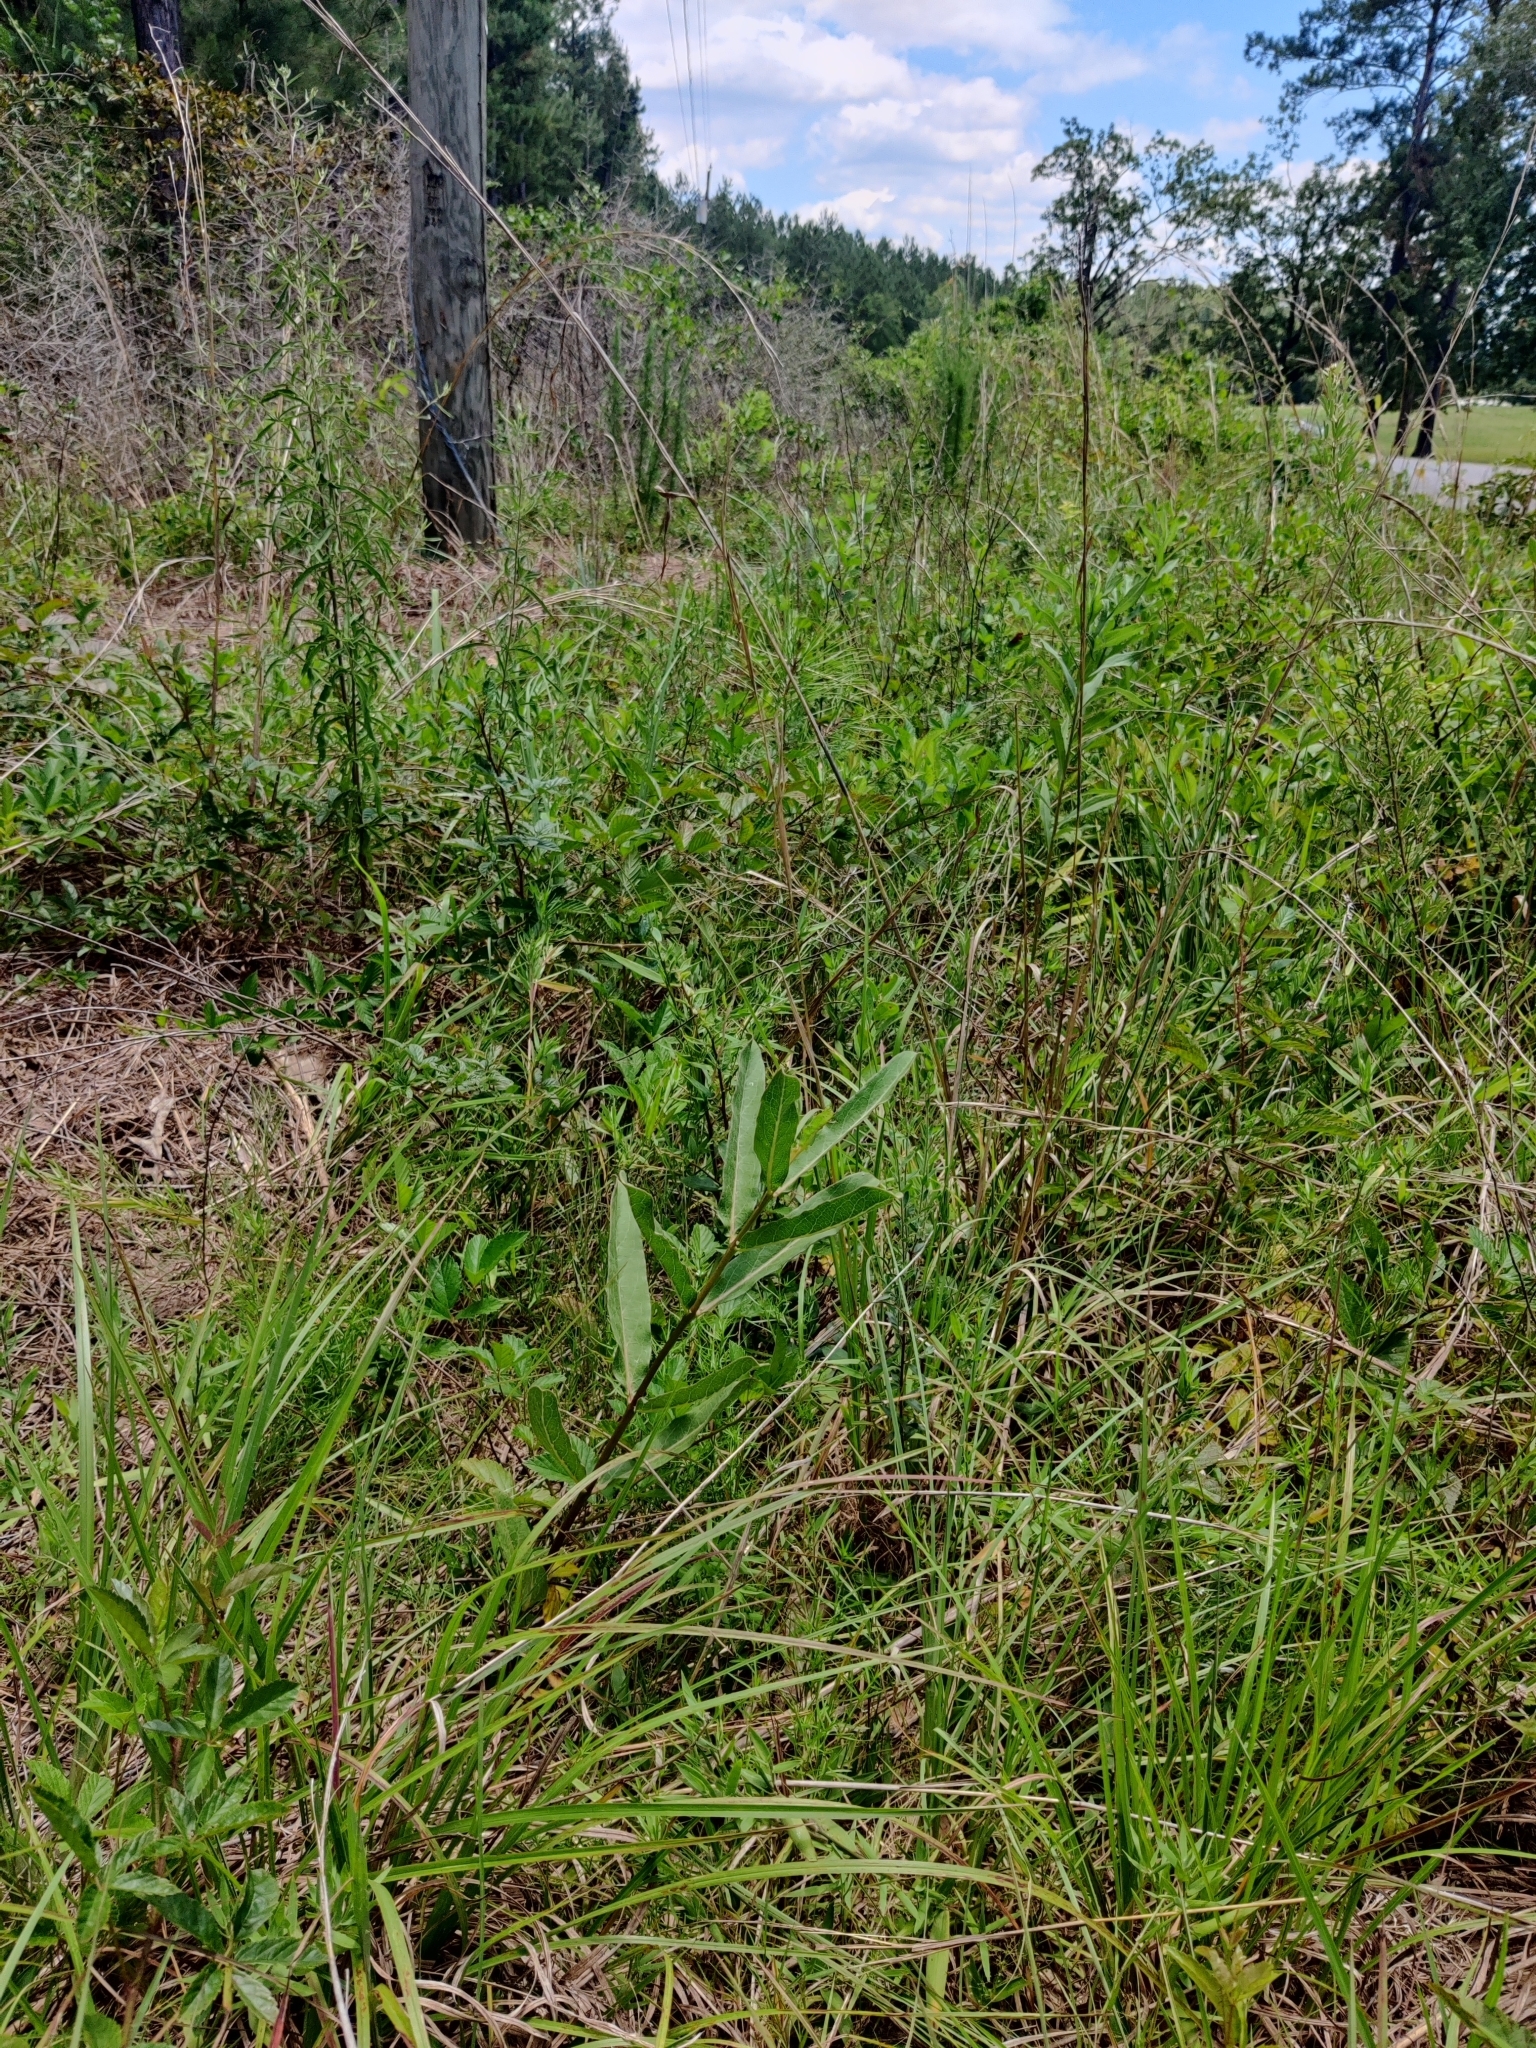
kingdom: Plantae
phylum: Tracheophyta
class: Magnoliopsida
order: Gentianales
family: Apocynaceae
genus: Asclepias
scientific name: Asclepias viridis
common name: Antelope-horns
